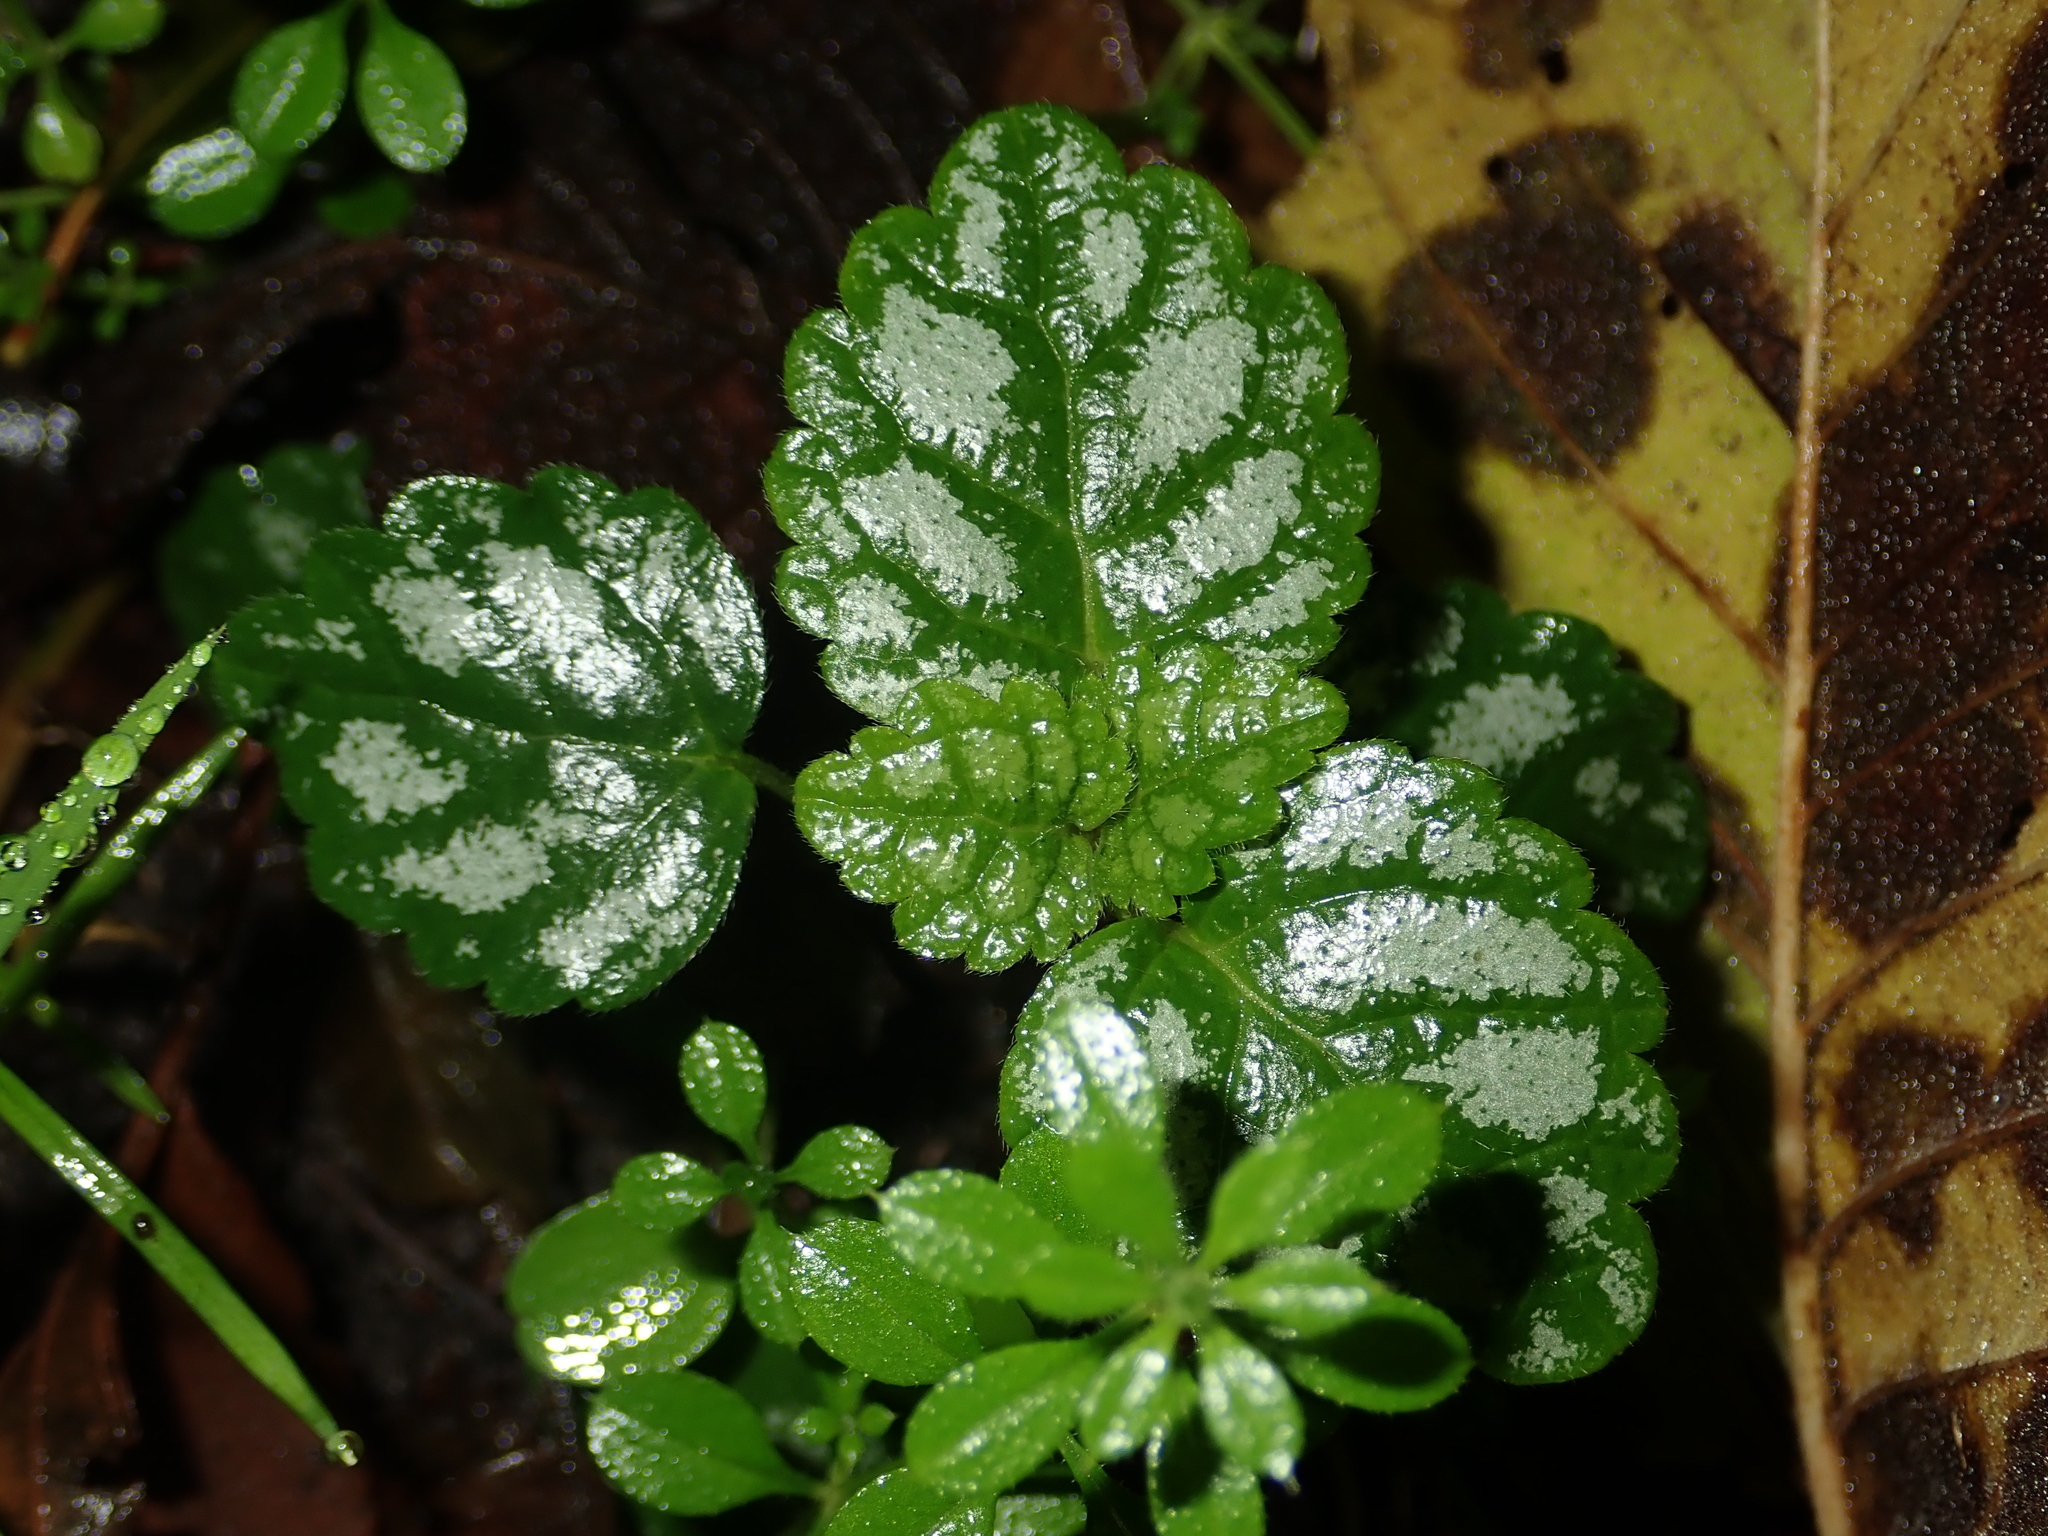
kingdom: Plantae
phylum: Tracheophyta
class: Magnoliopsida
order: Lamiales
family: Lamiaceae
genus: Lamium
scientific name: Lamium galeobdolon
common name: Yellow archangel
